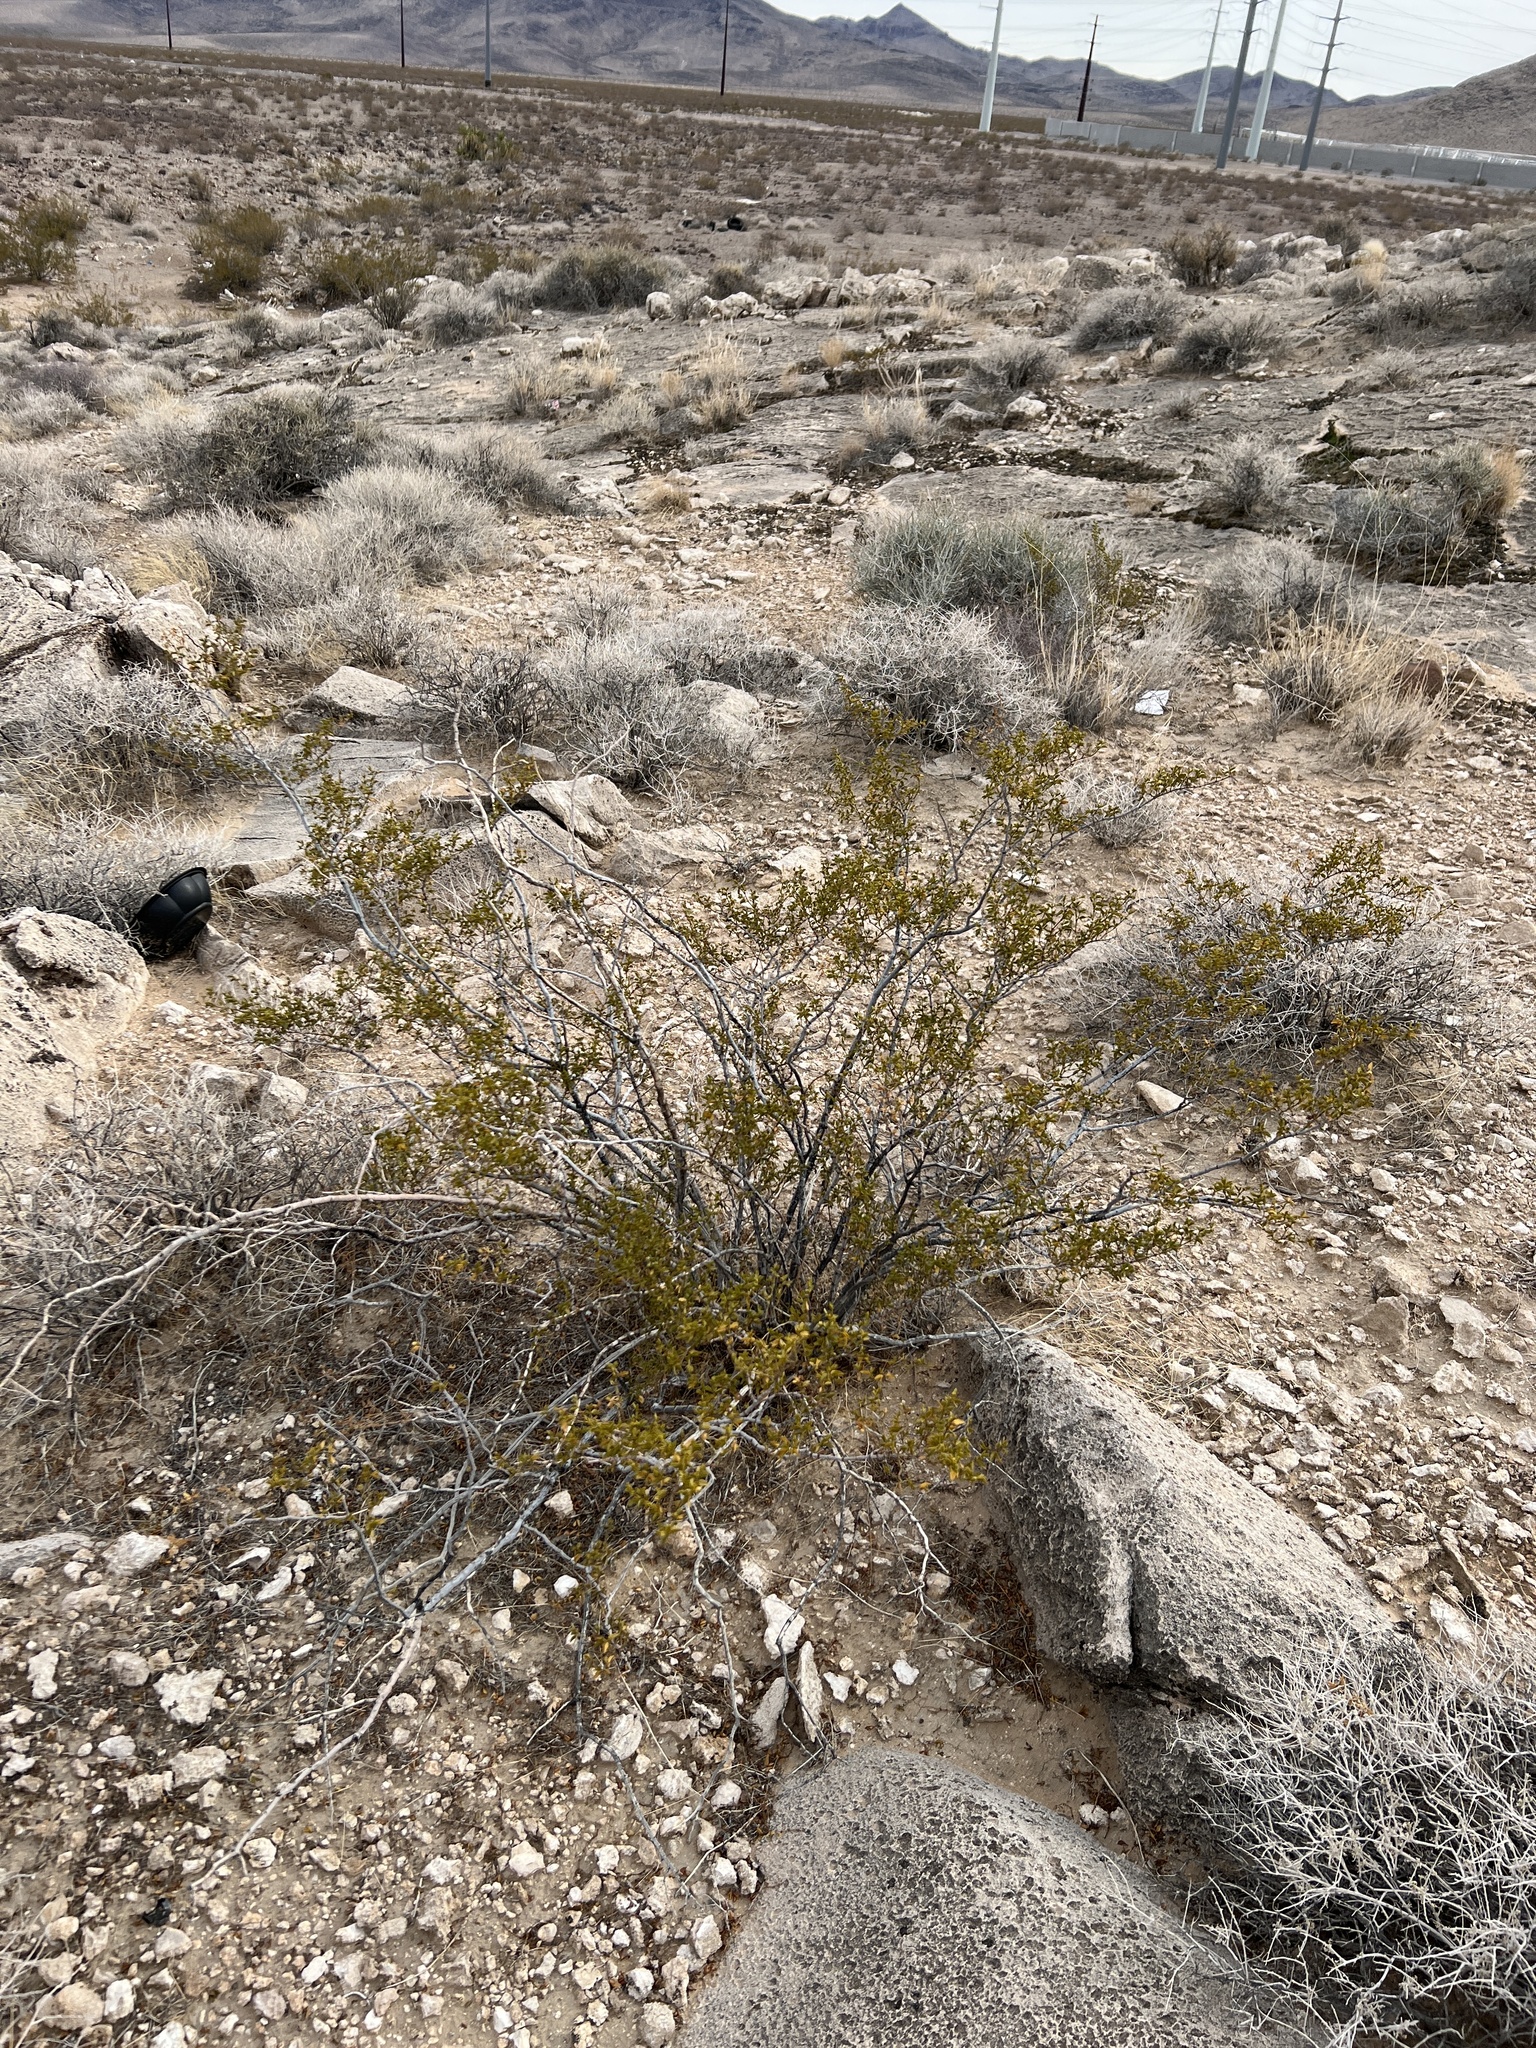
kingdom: Plantae
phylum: Tracheophyta
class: Magnoliopsida
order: Zygophyllales
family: Zygophyllaceae
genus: Larrea
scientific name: Larrea tridentata
